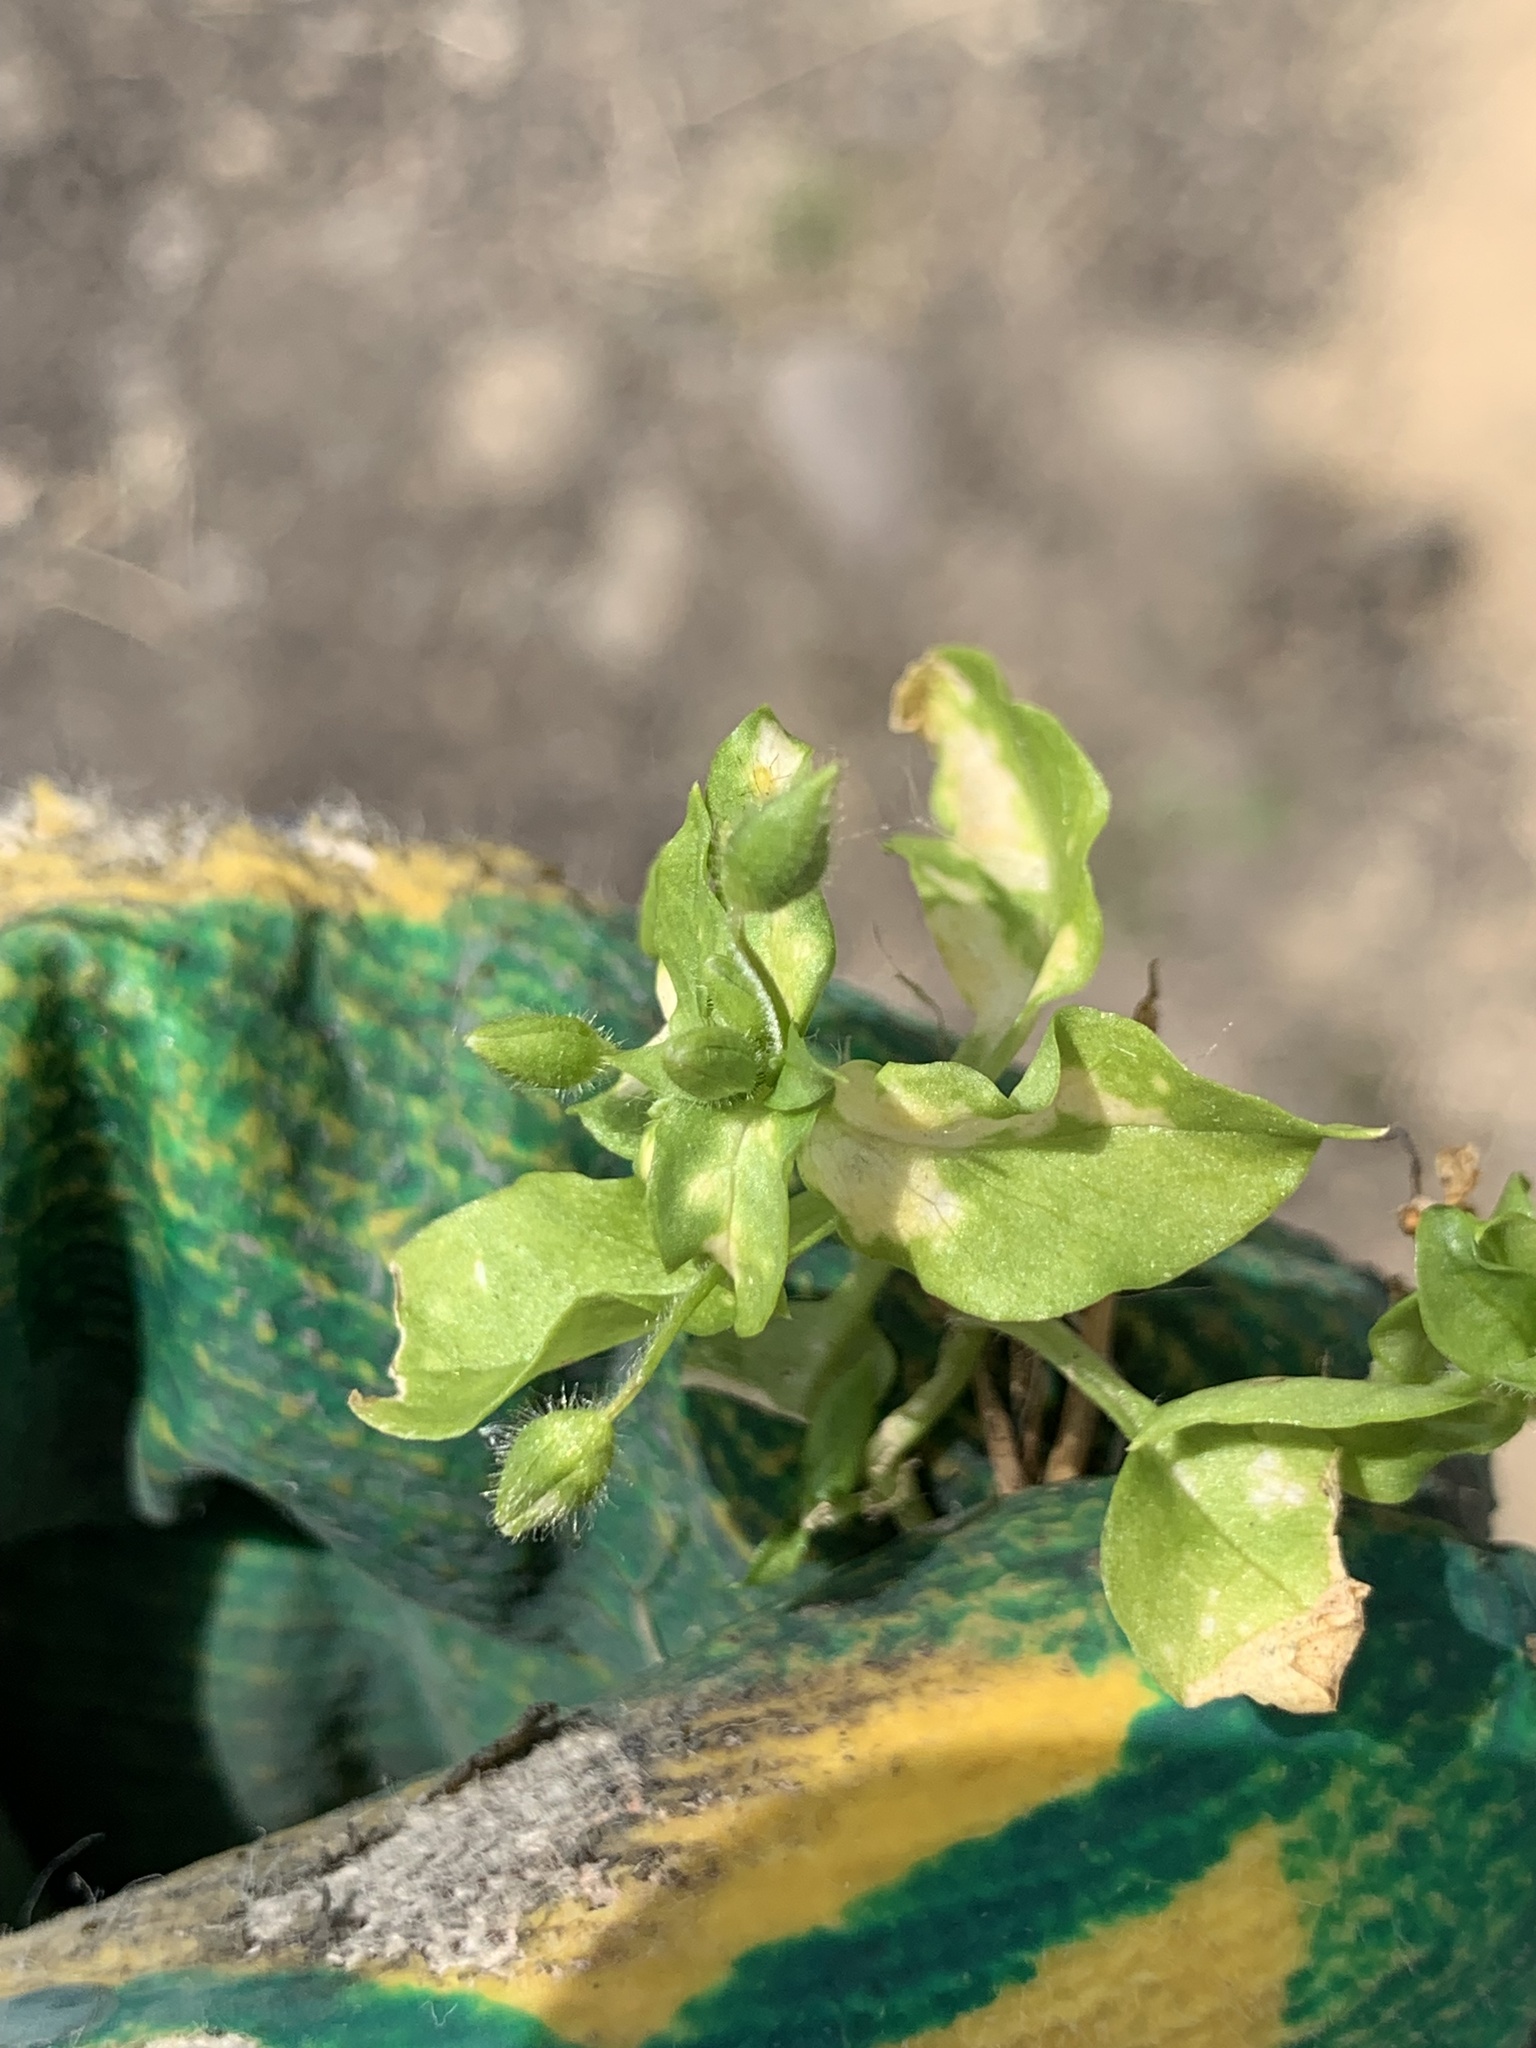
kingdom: Plantae
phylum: Tracheophyta
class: Magnoliopsida
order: Caryophyllales
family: Caryophyllaceae
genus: Stellaria
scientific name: Stellaria media
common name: Common chickweed
